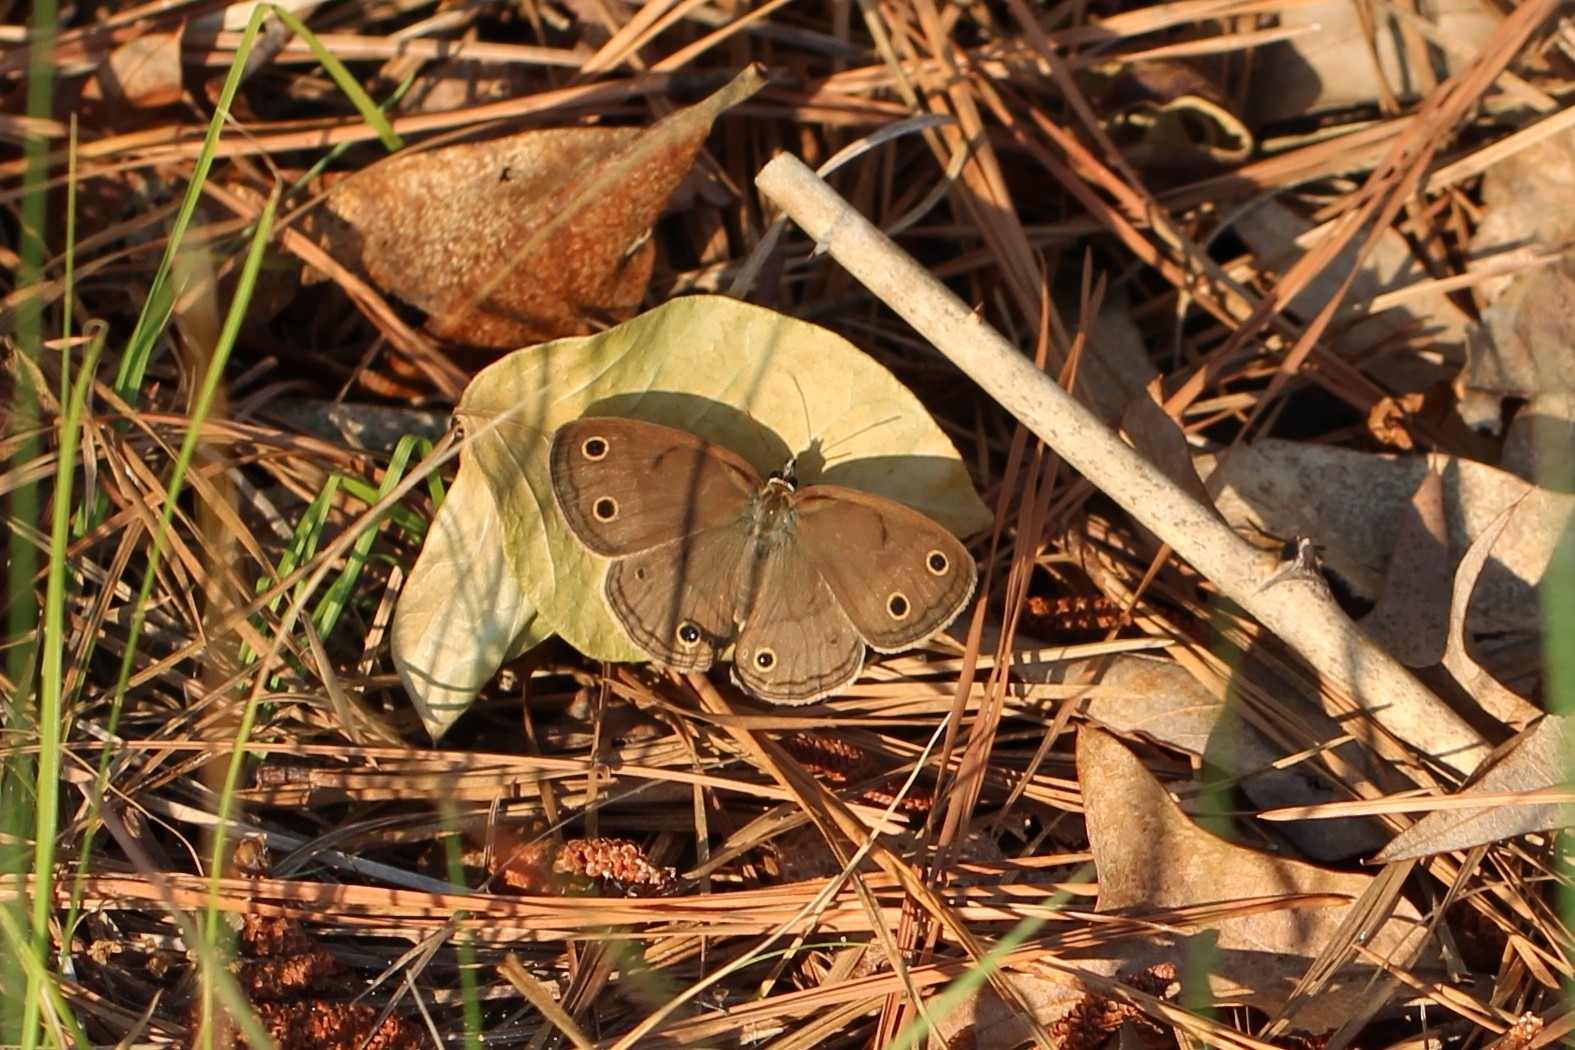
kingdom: Animalia
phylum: Arthropoda
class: Insecta
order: Lepidoptera
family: Nymphalidae
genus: Euptychia
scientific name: Euptychia cymela
